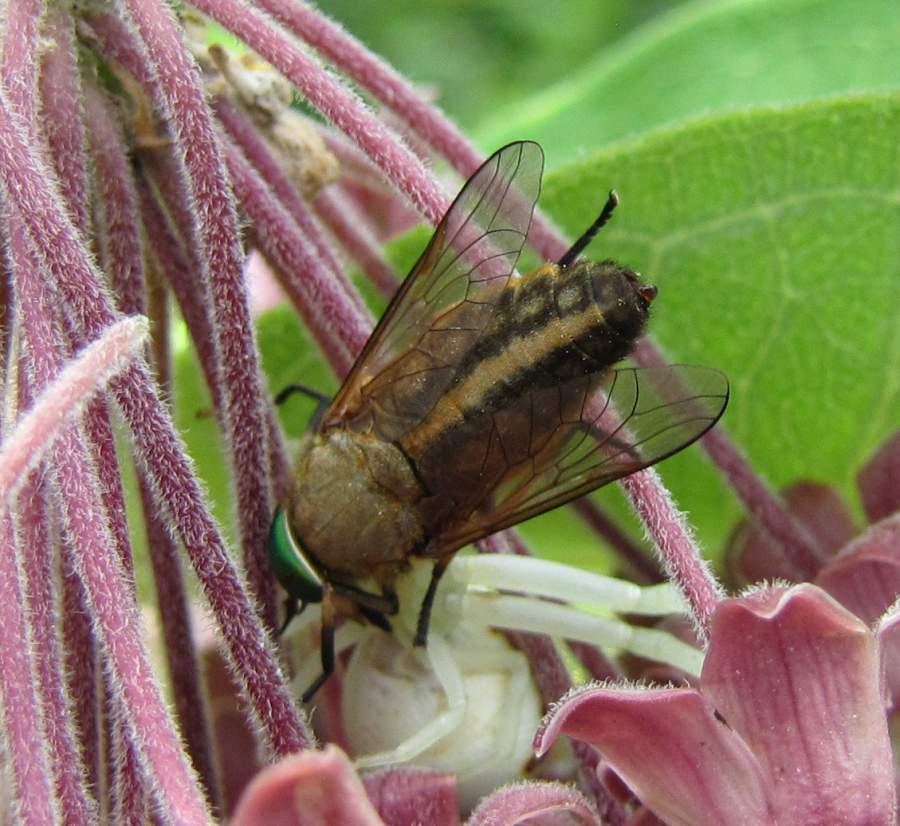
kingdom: Animalia
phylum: Arthropoda
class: Insecta
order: Diptera
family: Tabanidae
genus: Tabanus
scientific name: Tabanus quinquevittatus
